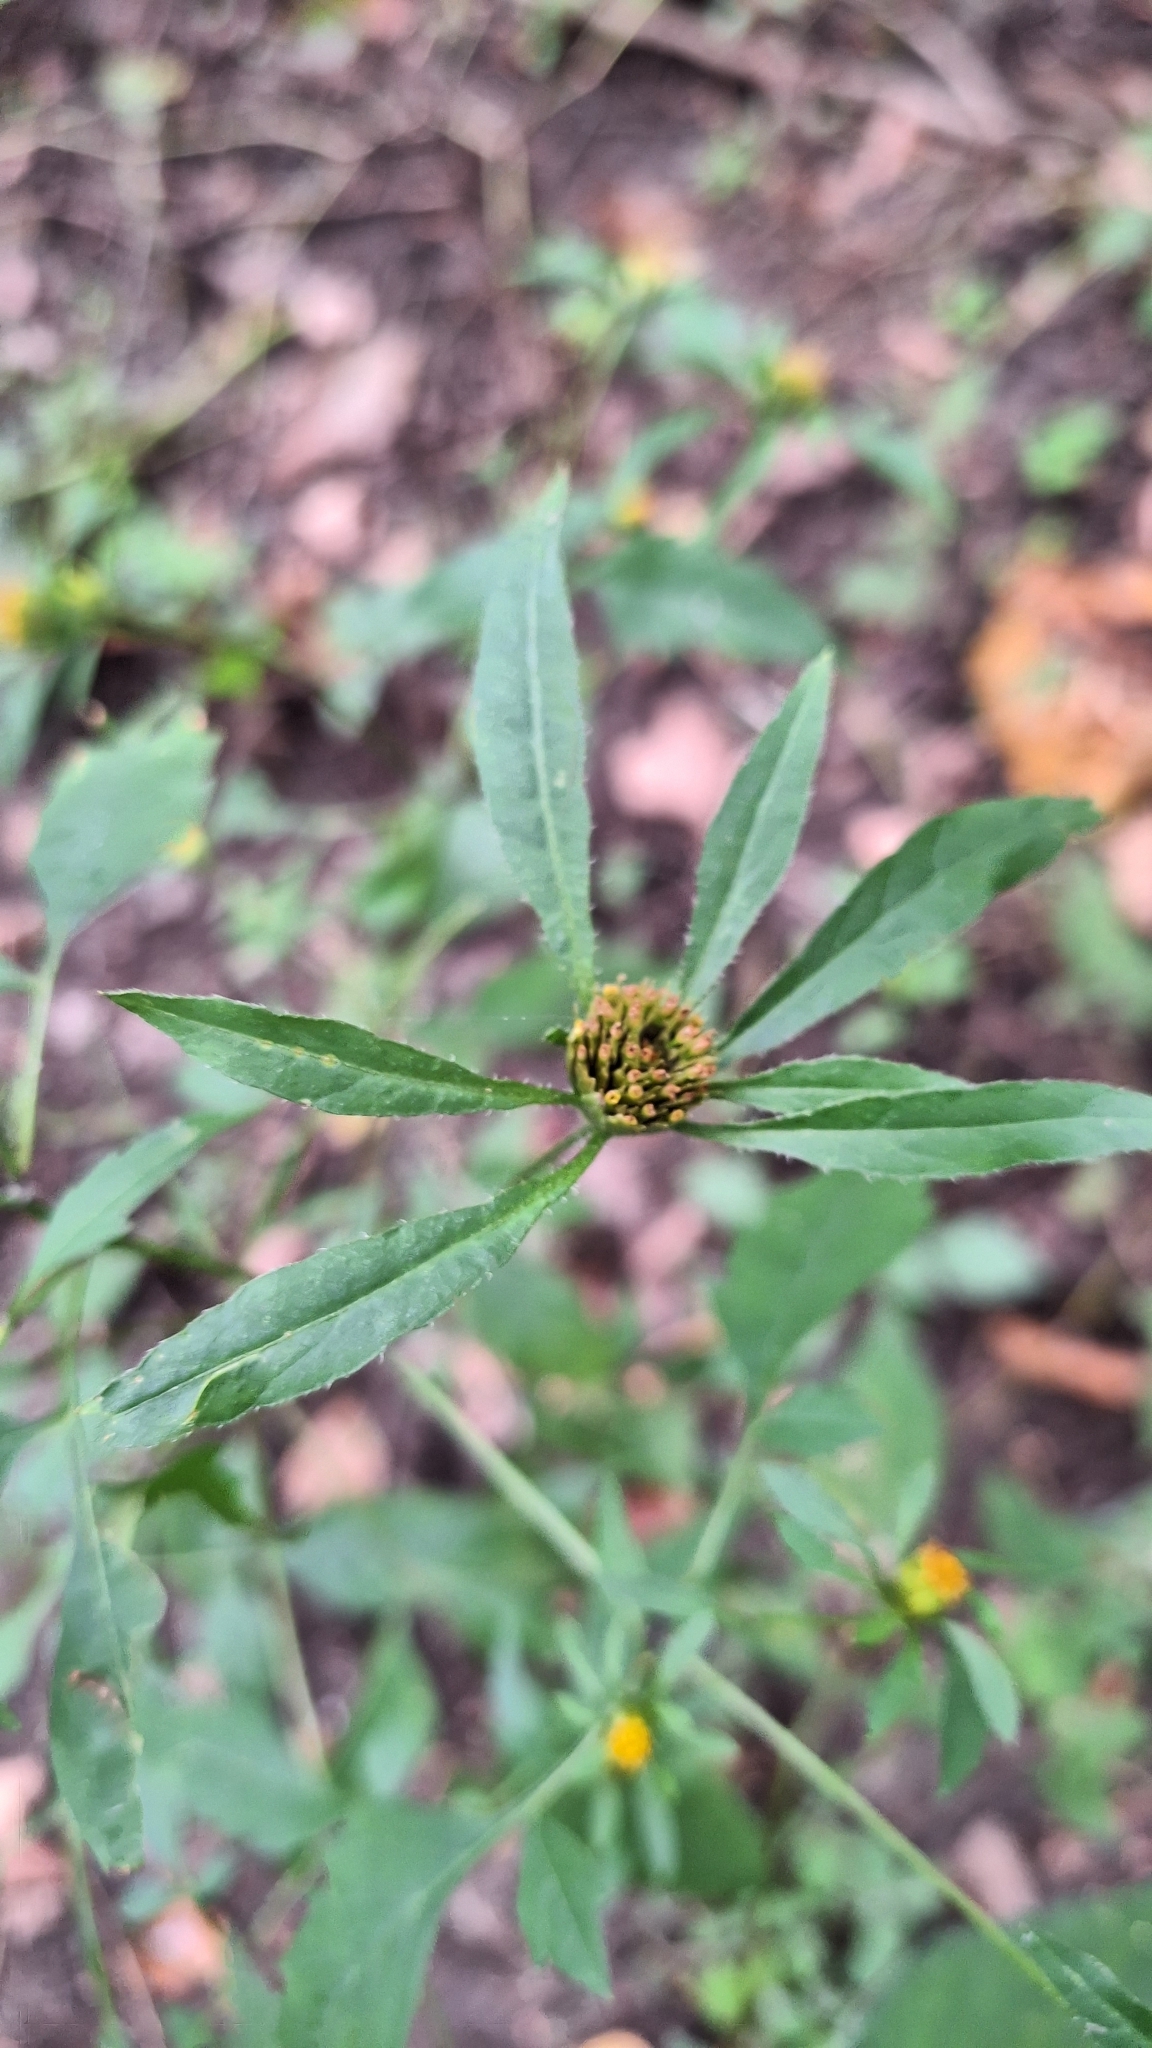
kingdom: Plantae
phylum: Tracheophyta
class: Magnoliopsida
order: Asterales
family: Asteraceae
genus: Bidens
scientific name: Bidens frondosa
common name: Beggarticks
